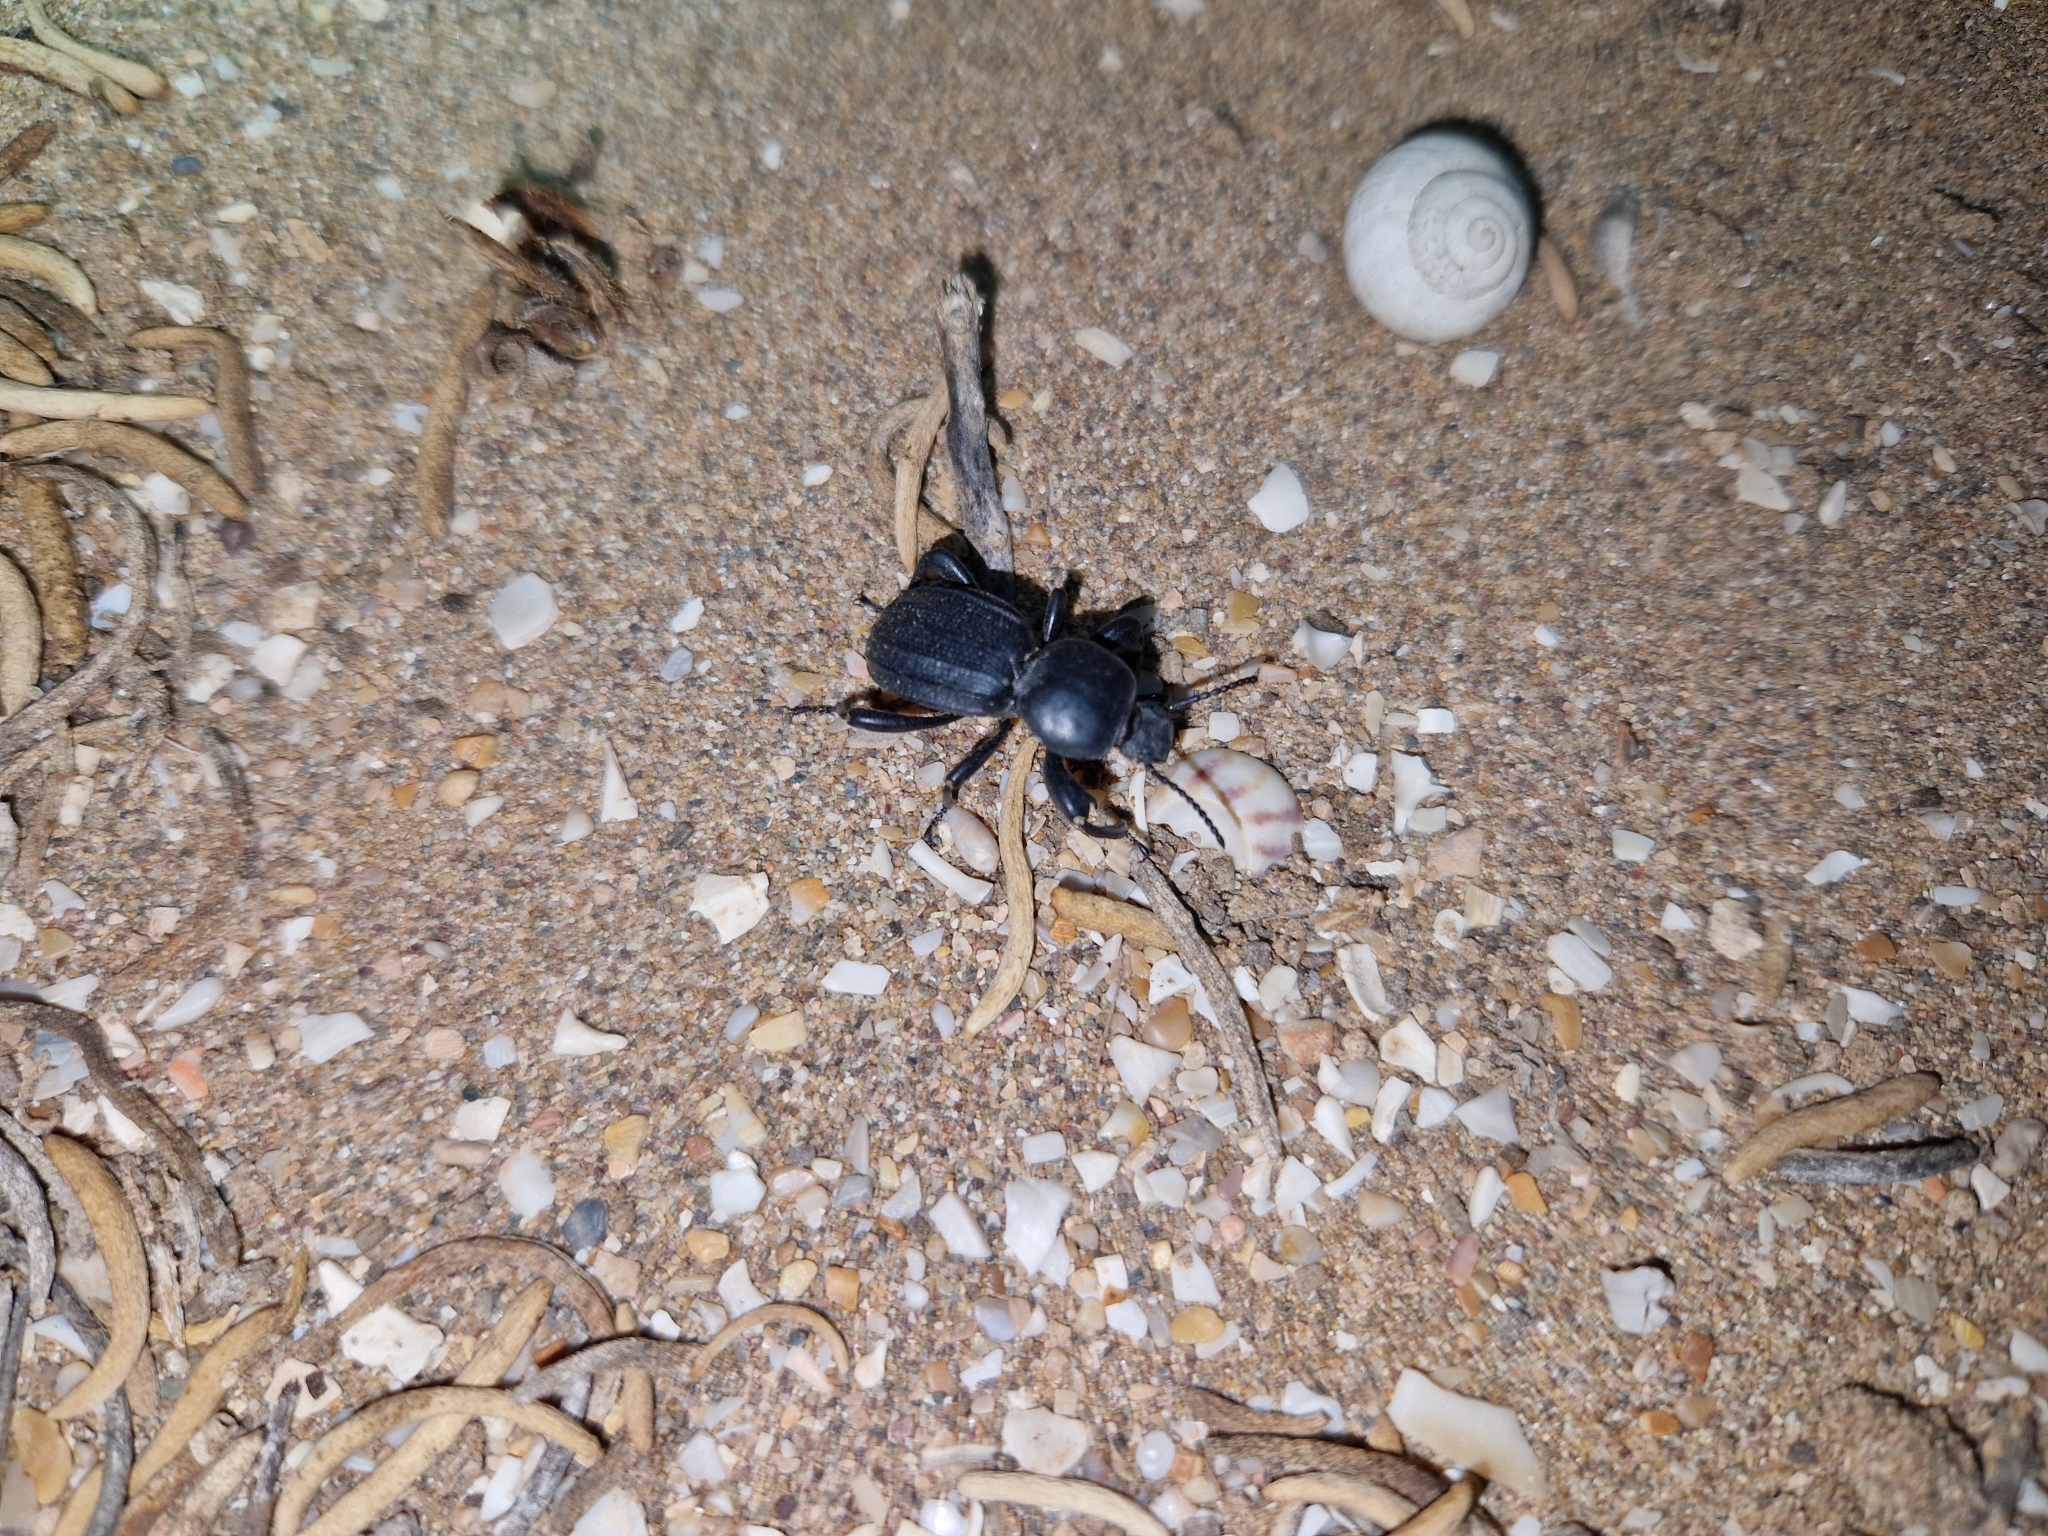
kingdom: Animalia
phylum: Arthropoda
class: Insecta
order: Coleoptera
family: Tenebrionidae
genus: Scaurus
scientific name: Scaurus uncinus
